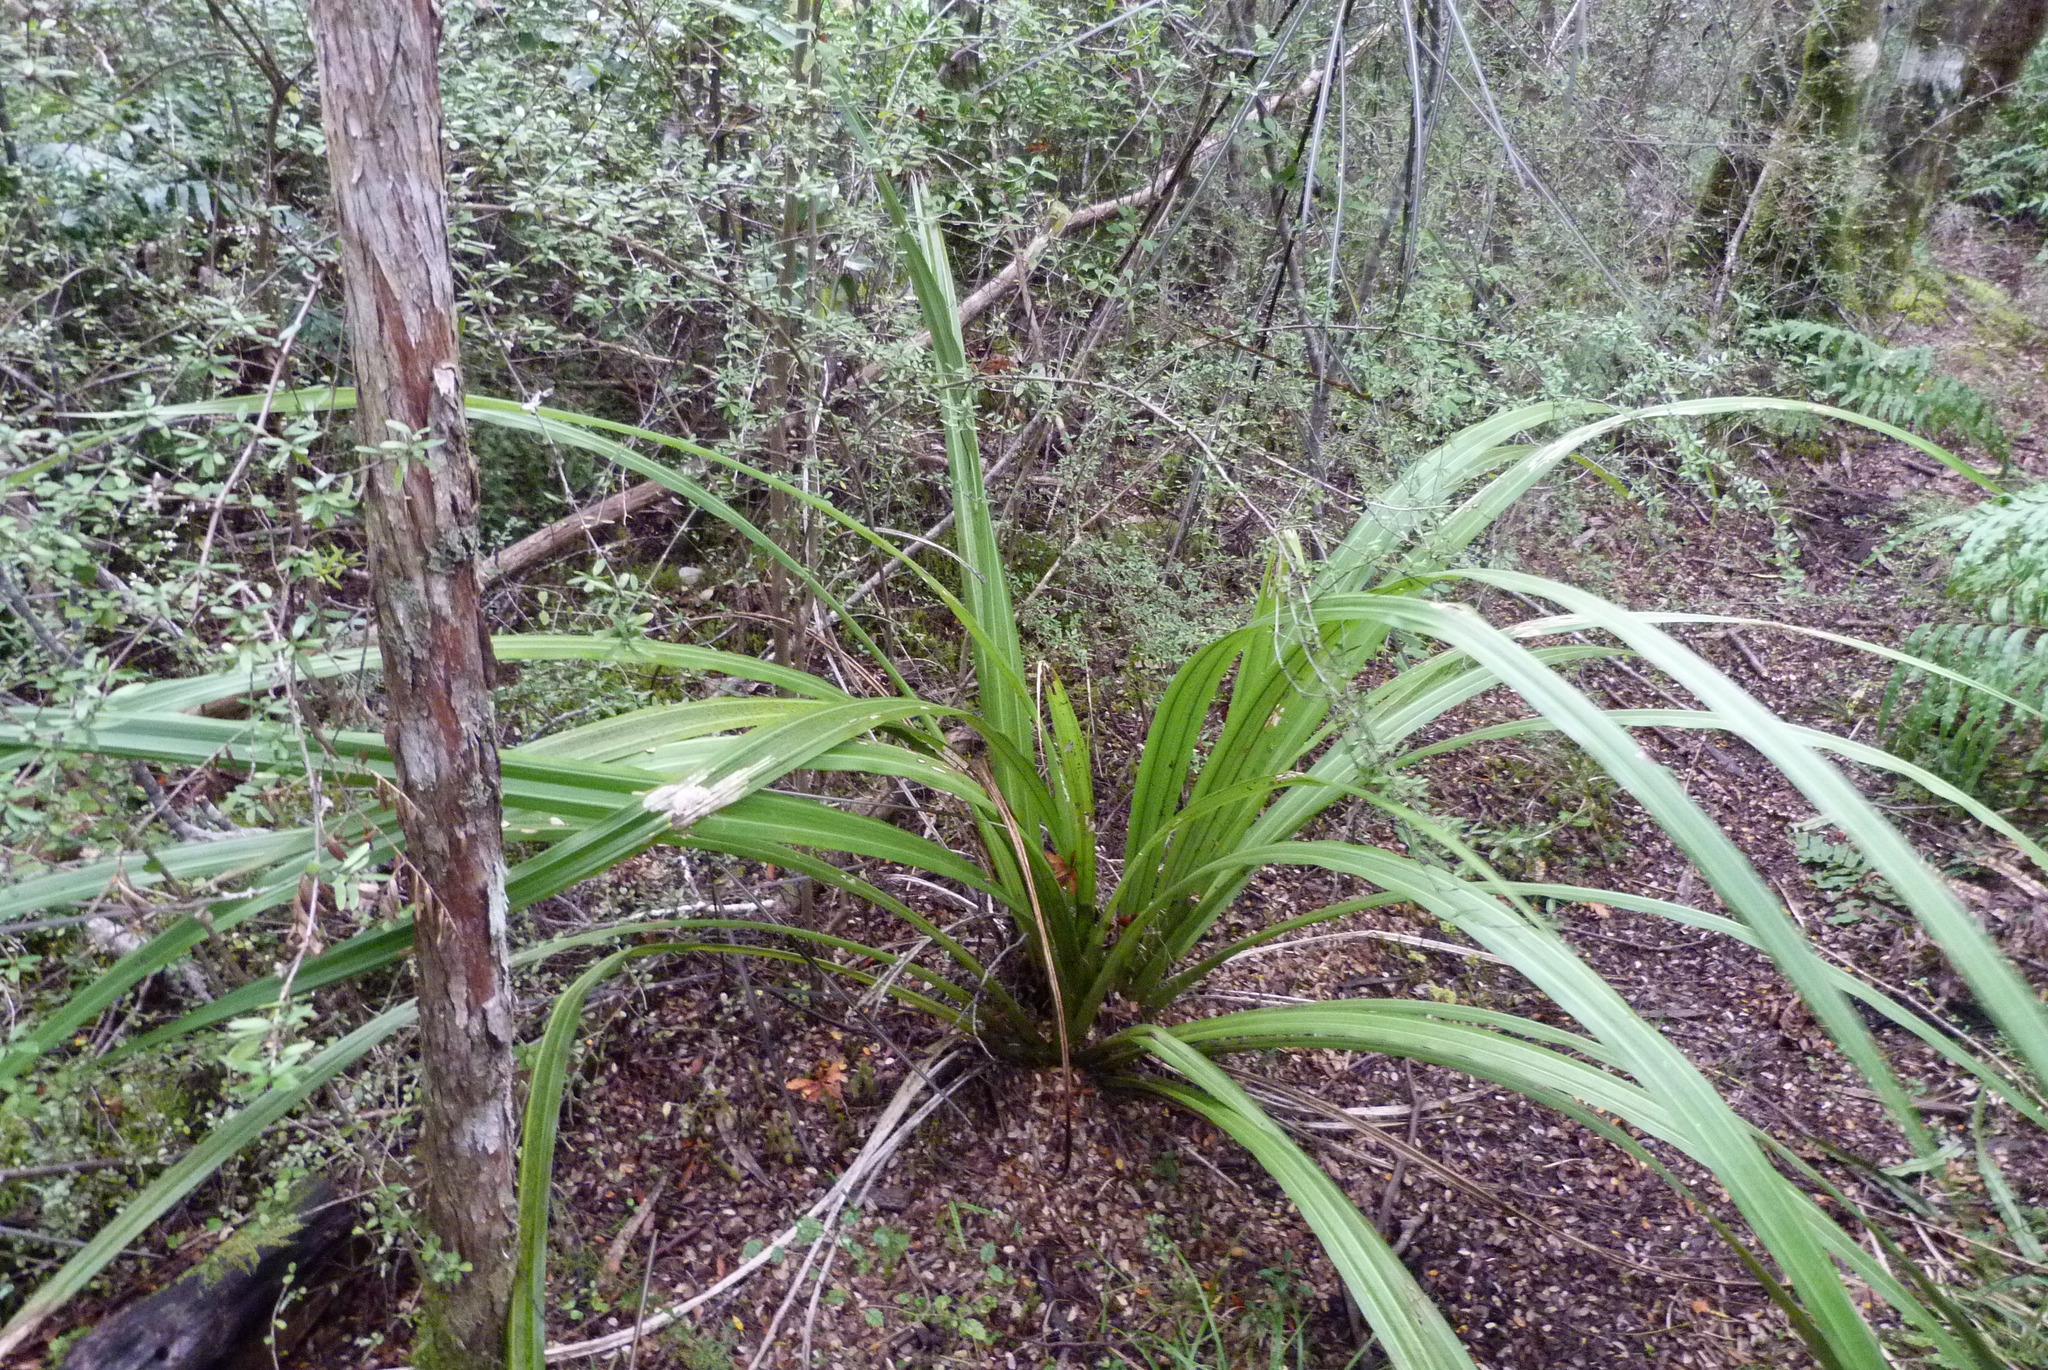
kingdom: Plantae
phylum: Tracheophyta
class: Liliopsida
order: Asparagales
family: Asteliaceae
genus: Astelia
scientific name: Astelia fragrans
